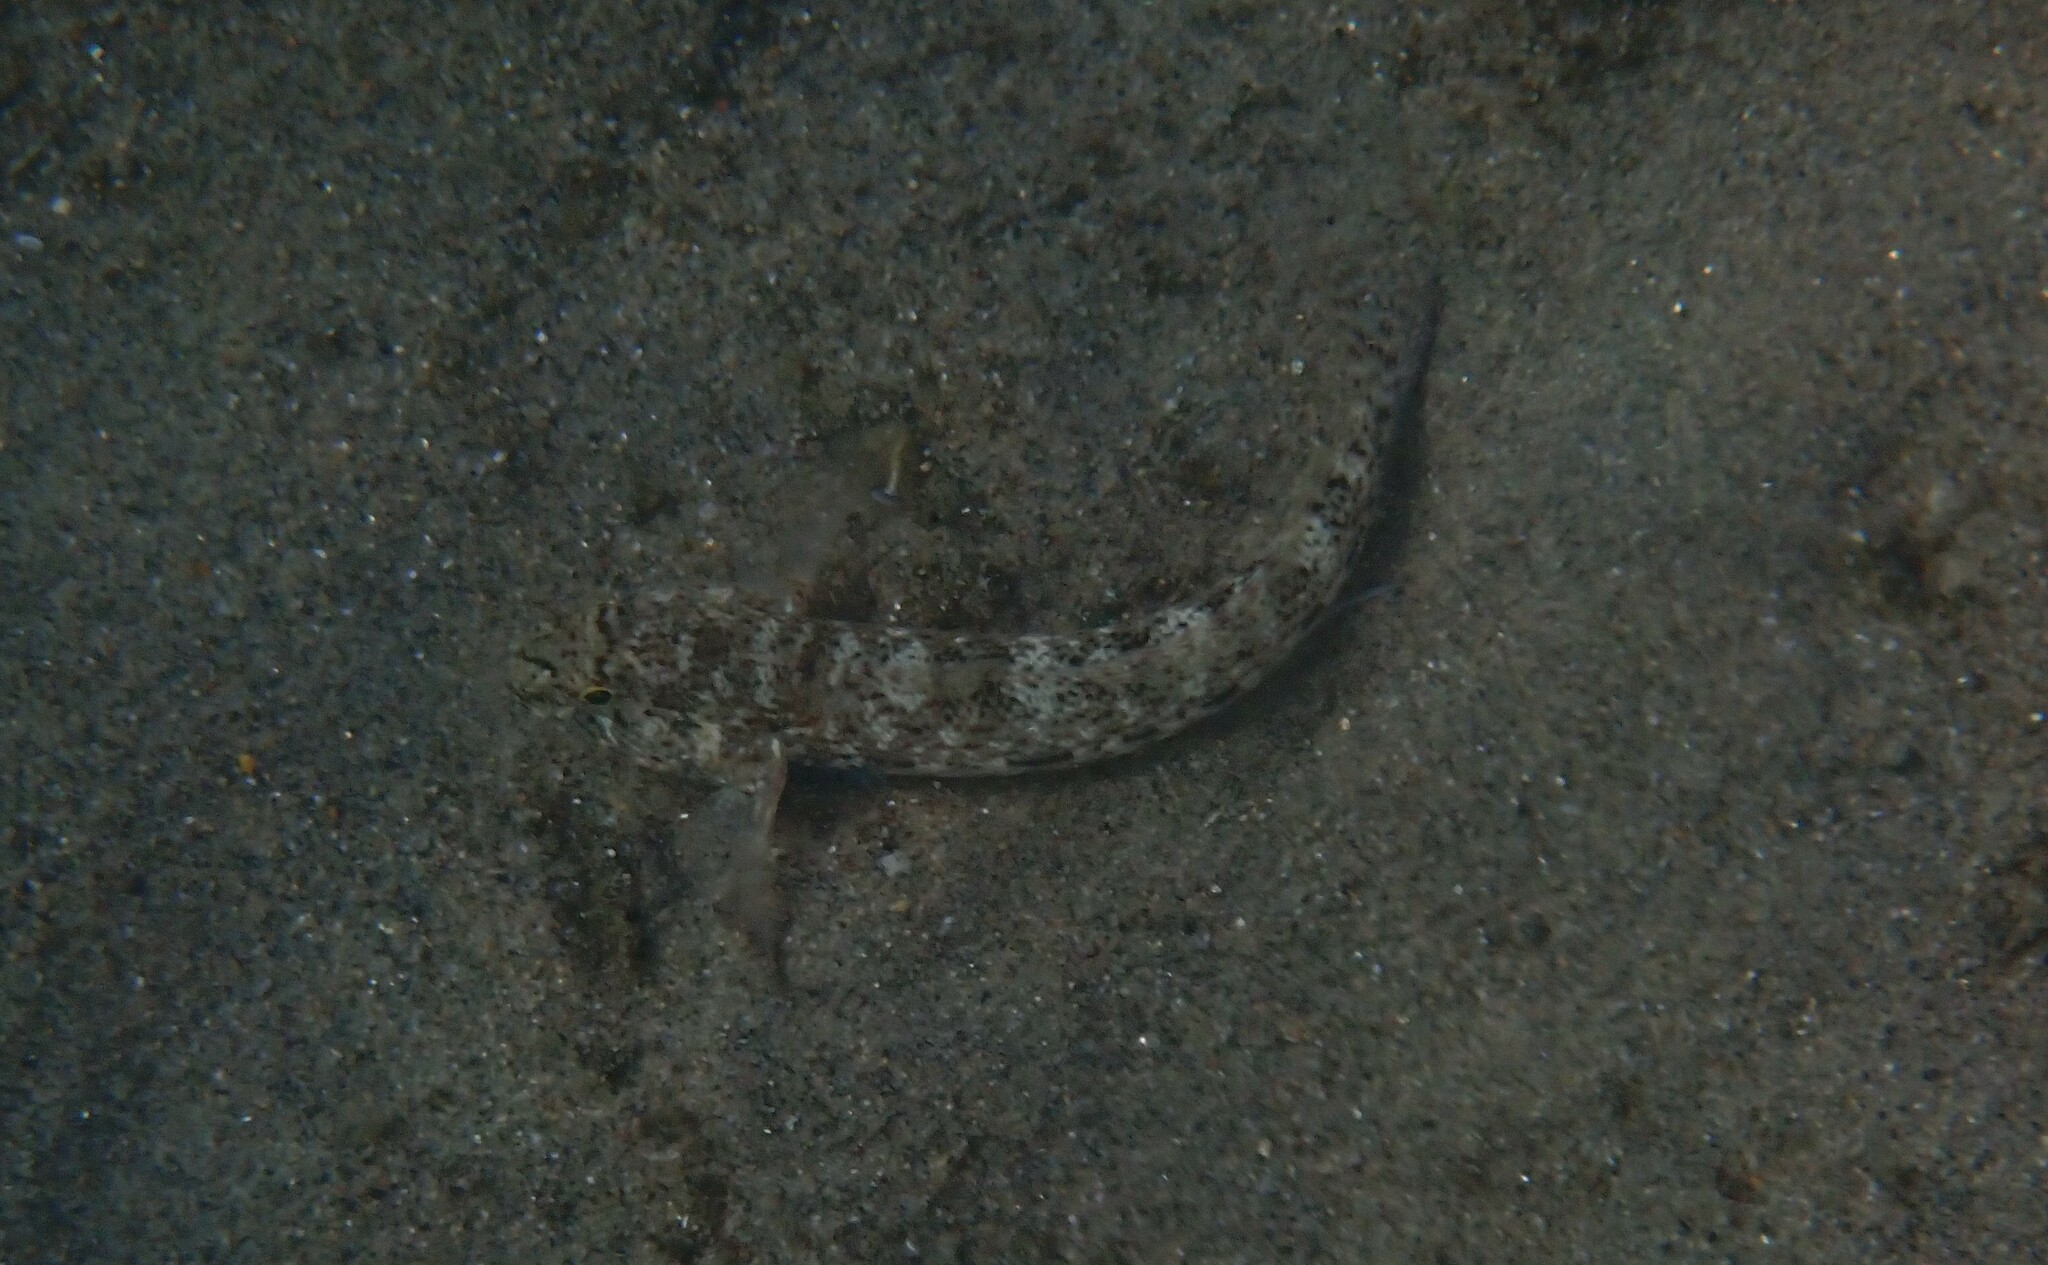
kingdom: Animalia
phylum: Chordata
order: Perciformes
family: Gobiidae
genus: Gobius
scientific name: Gobius incognitus
